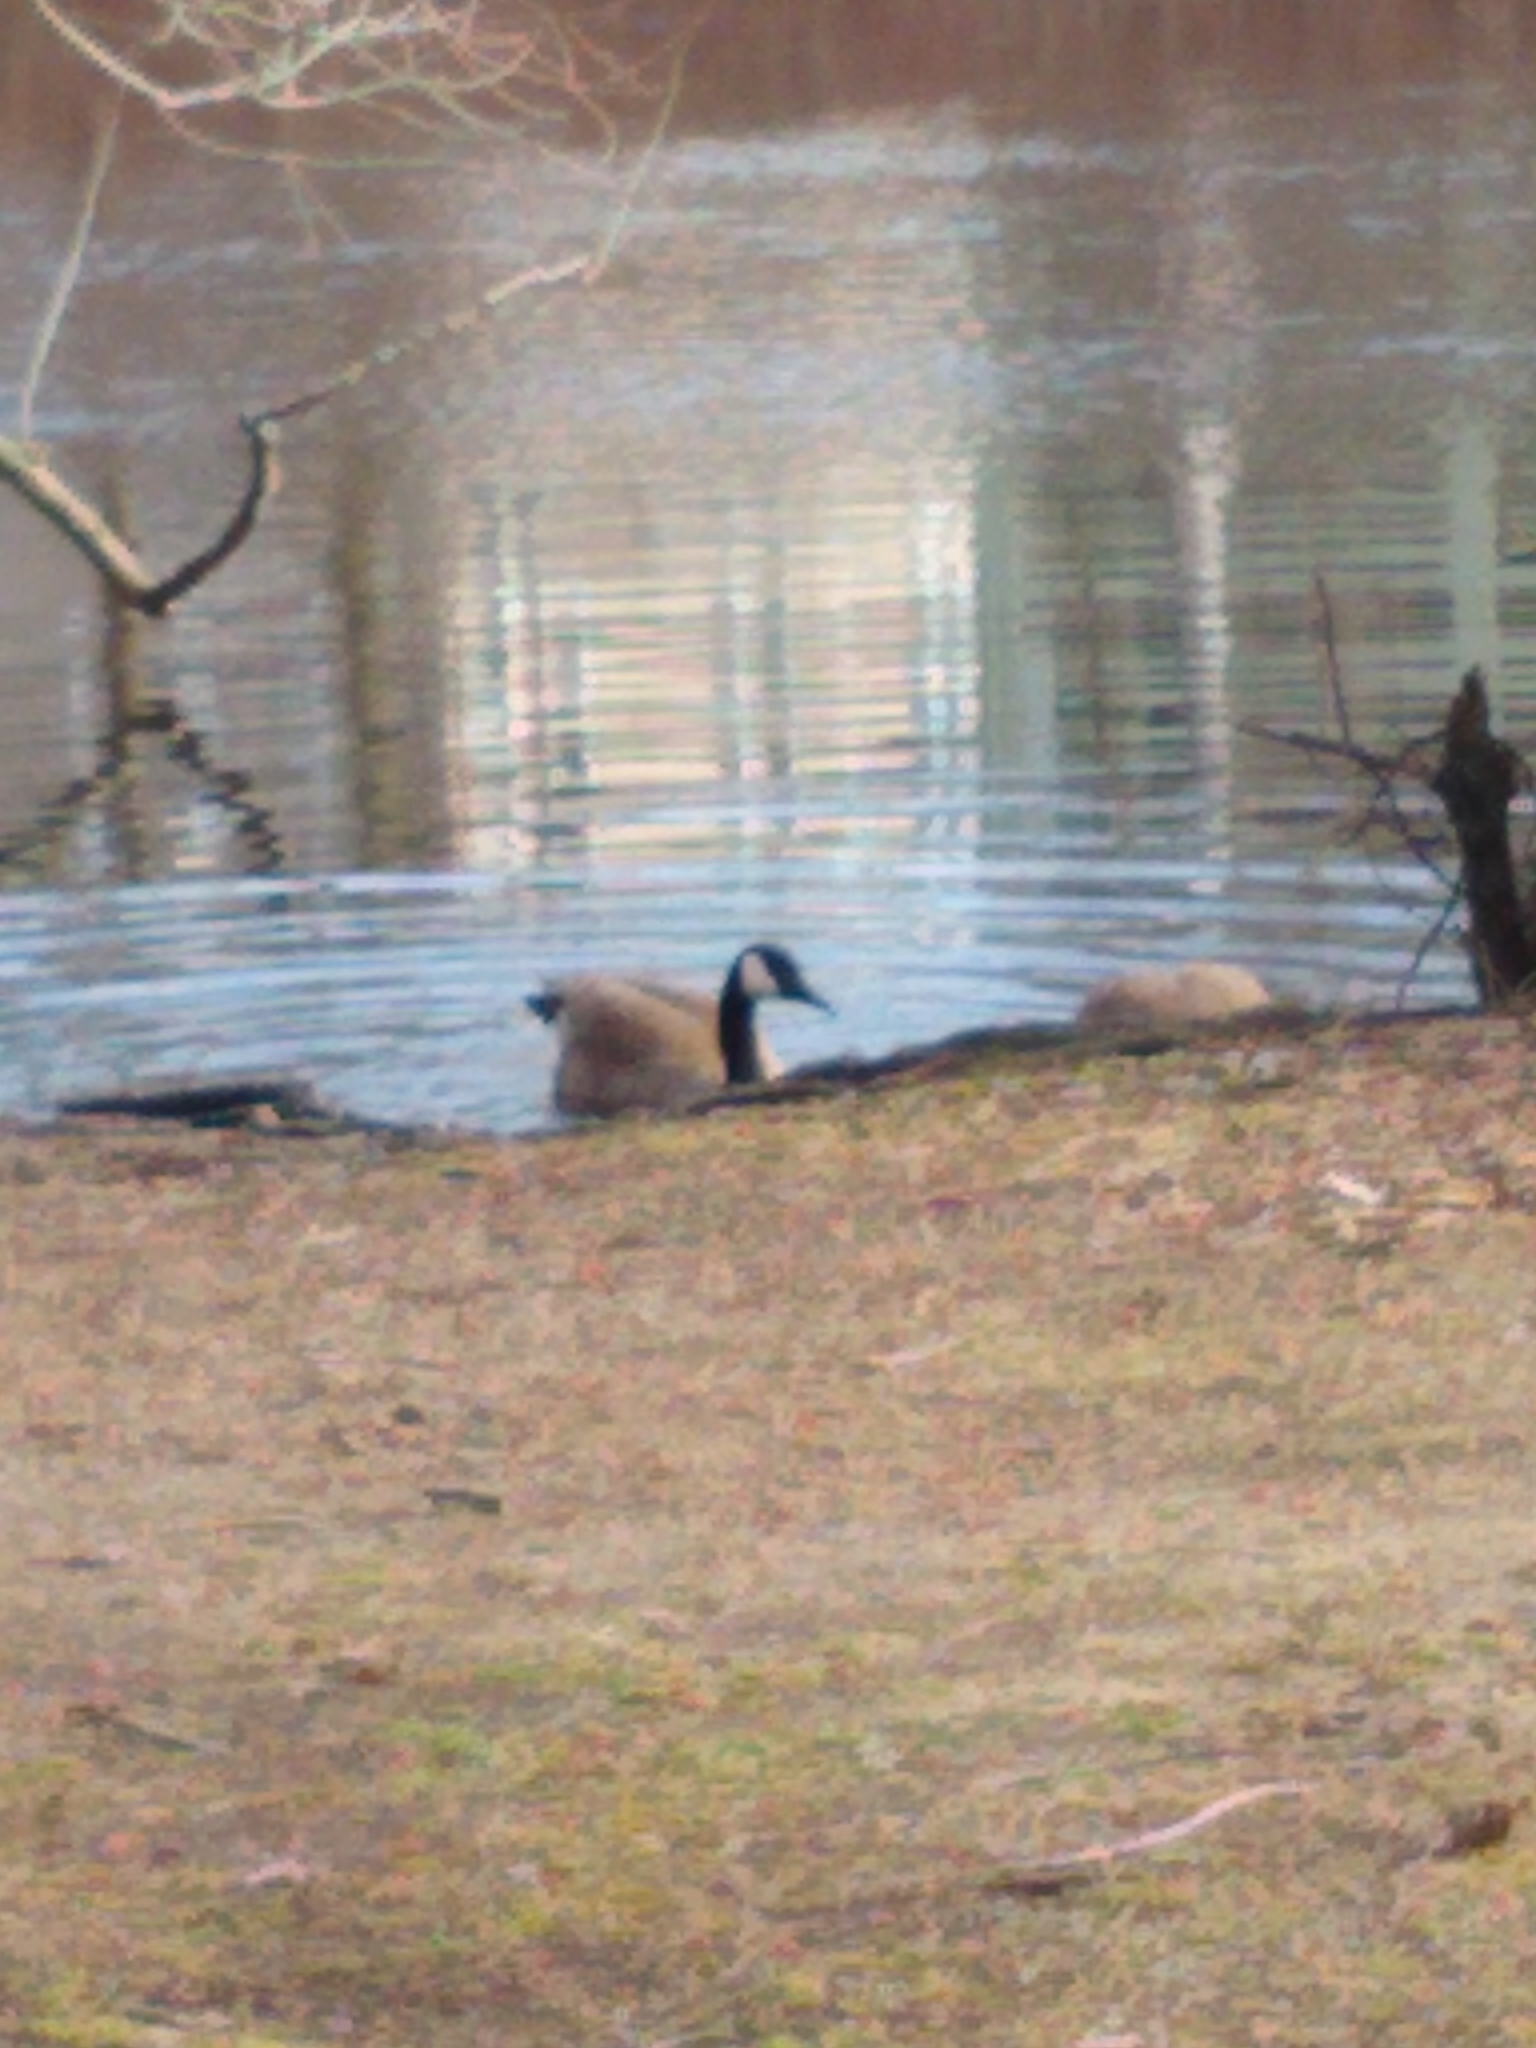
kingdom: Animalia
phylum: Chordata
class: Aves
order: Anseriformes
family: Anatidae
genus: Branta
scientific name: Branta canadensis
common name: Canada goose
